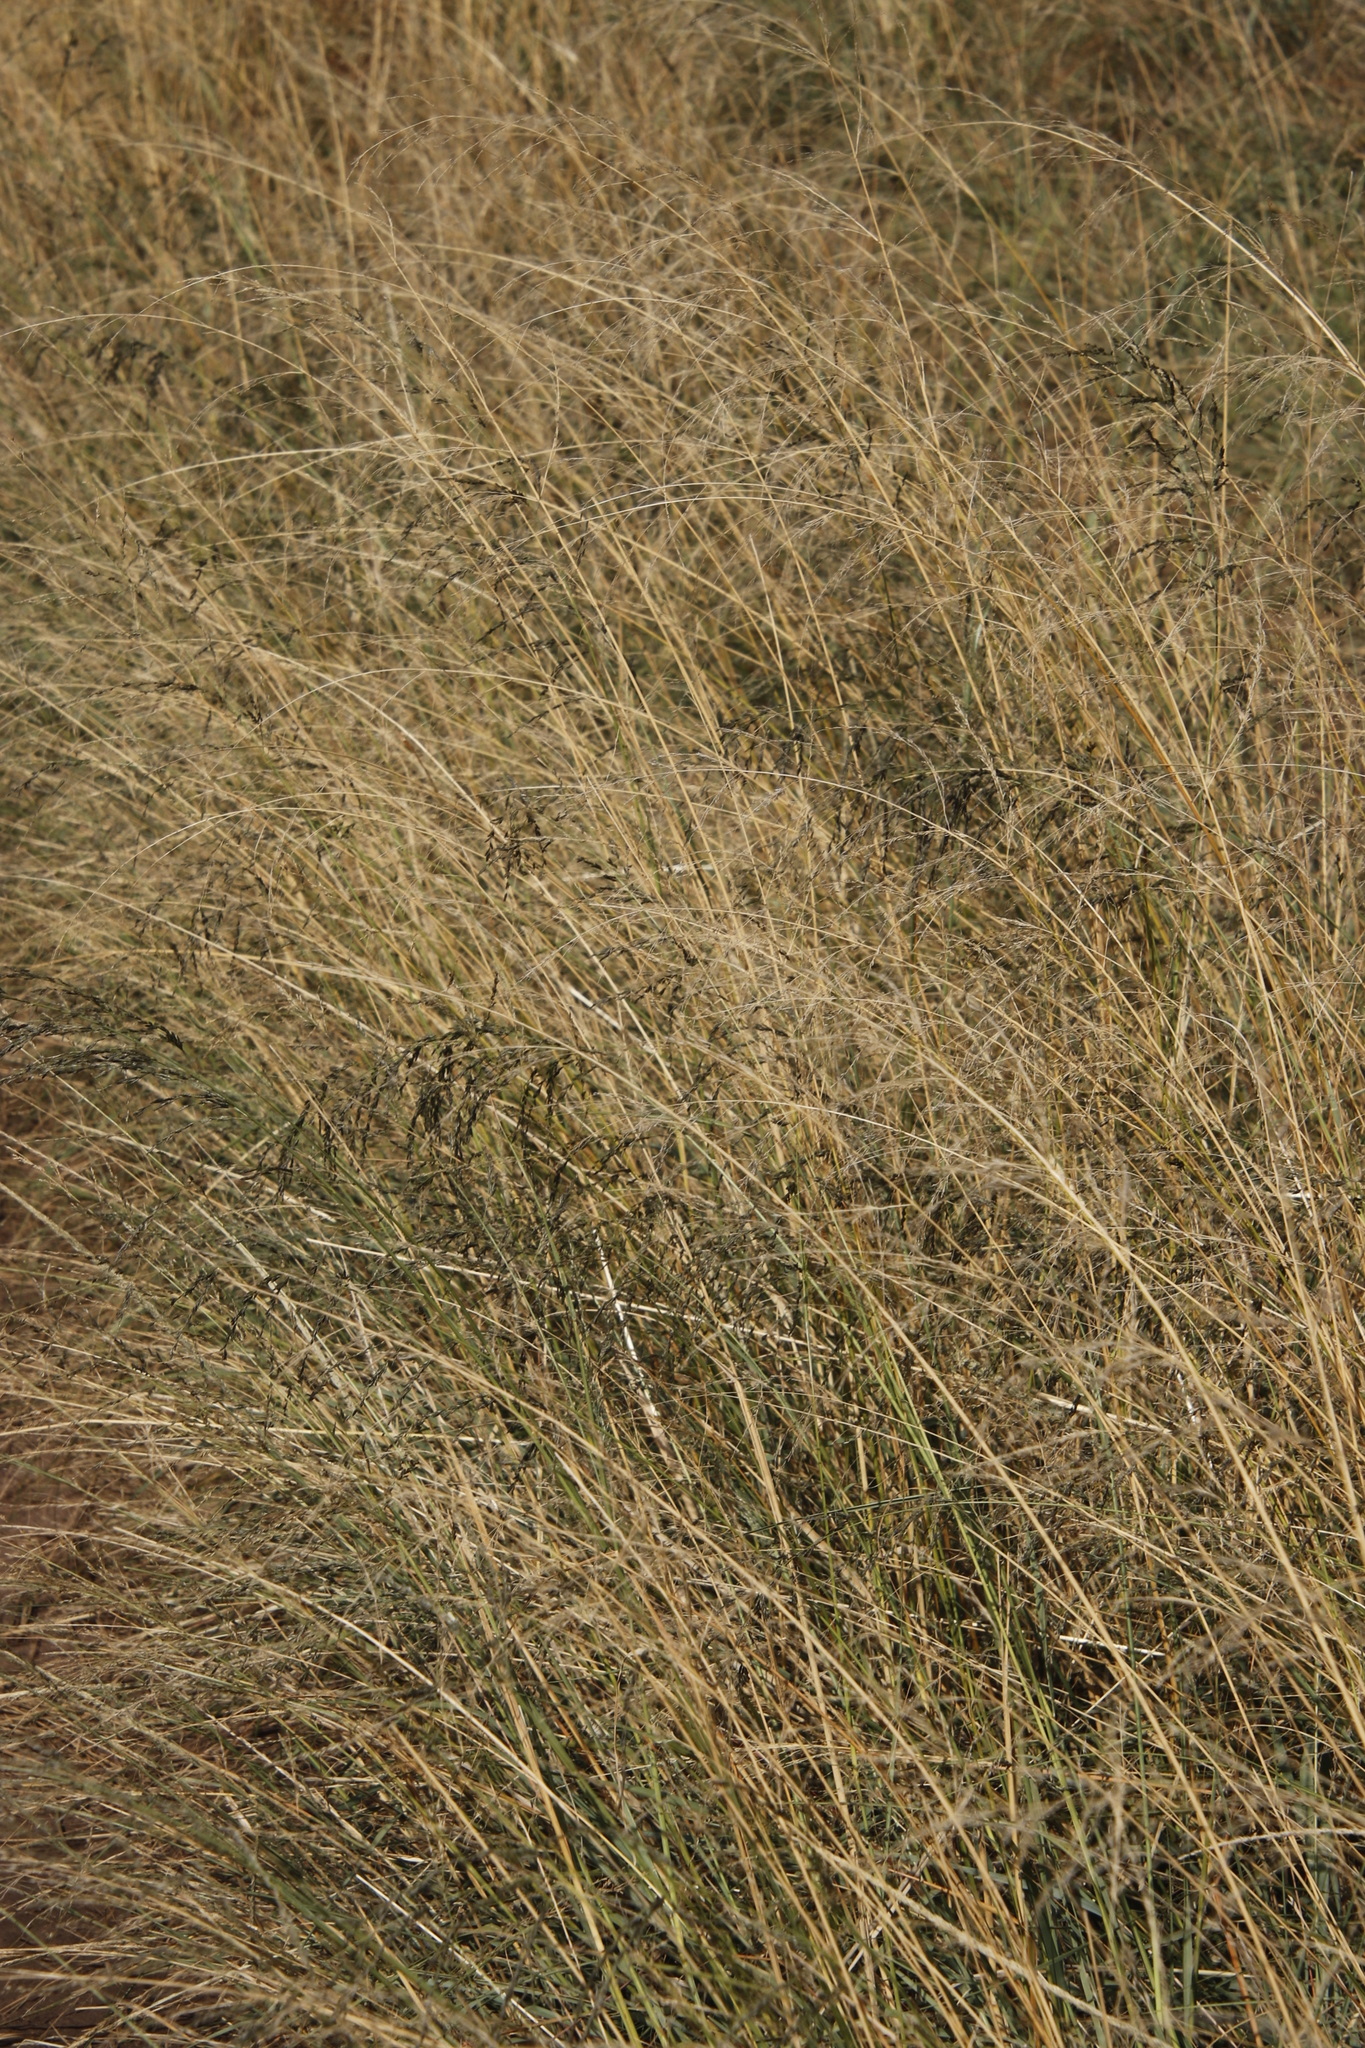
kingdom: Plantae
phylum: Tracheophyta
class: Liliopsida
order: Poales
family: Poaceae
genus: Eragrostis
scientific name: Eragrostis curvula
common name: African love-grass
